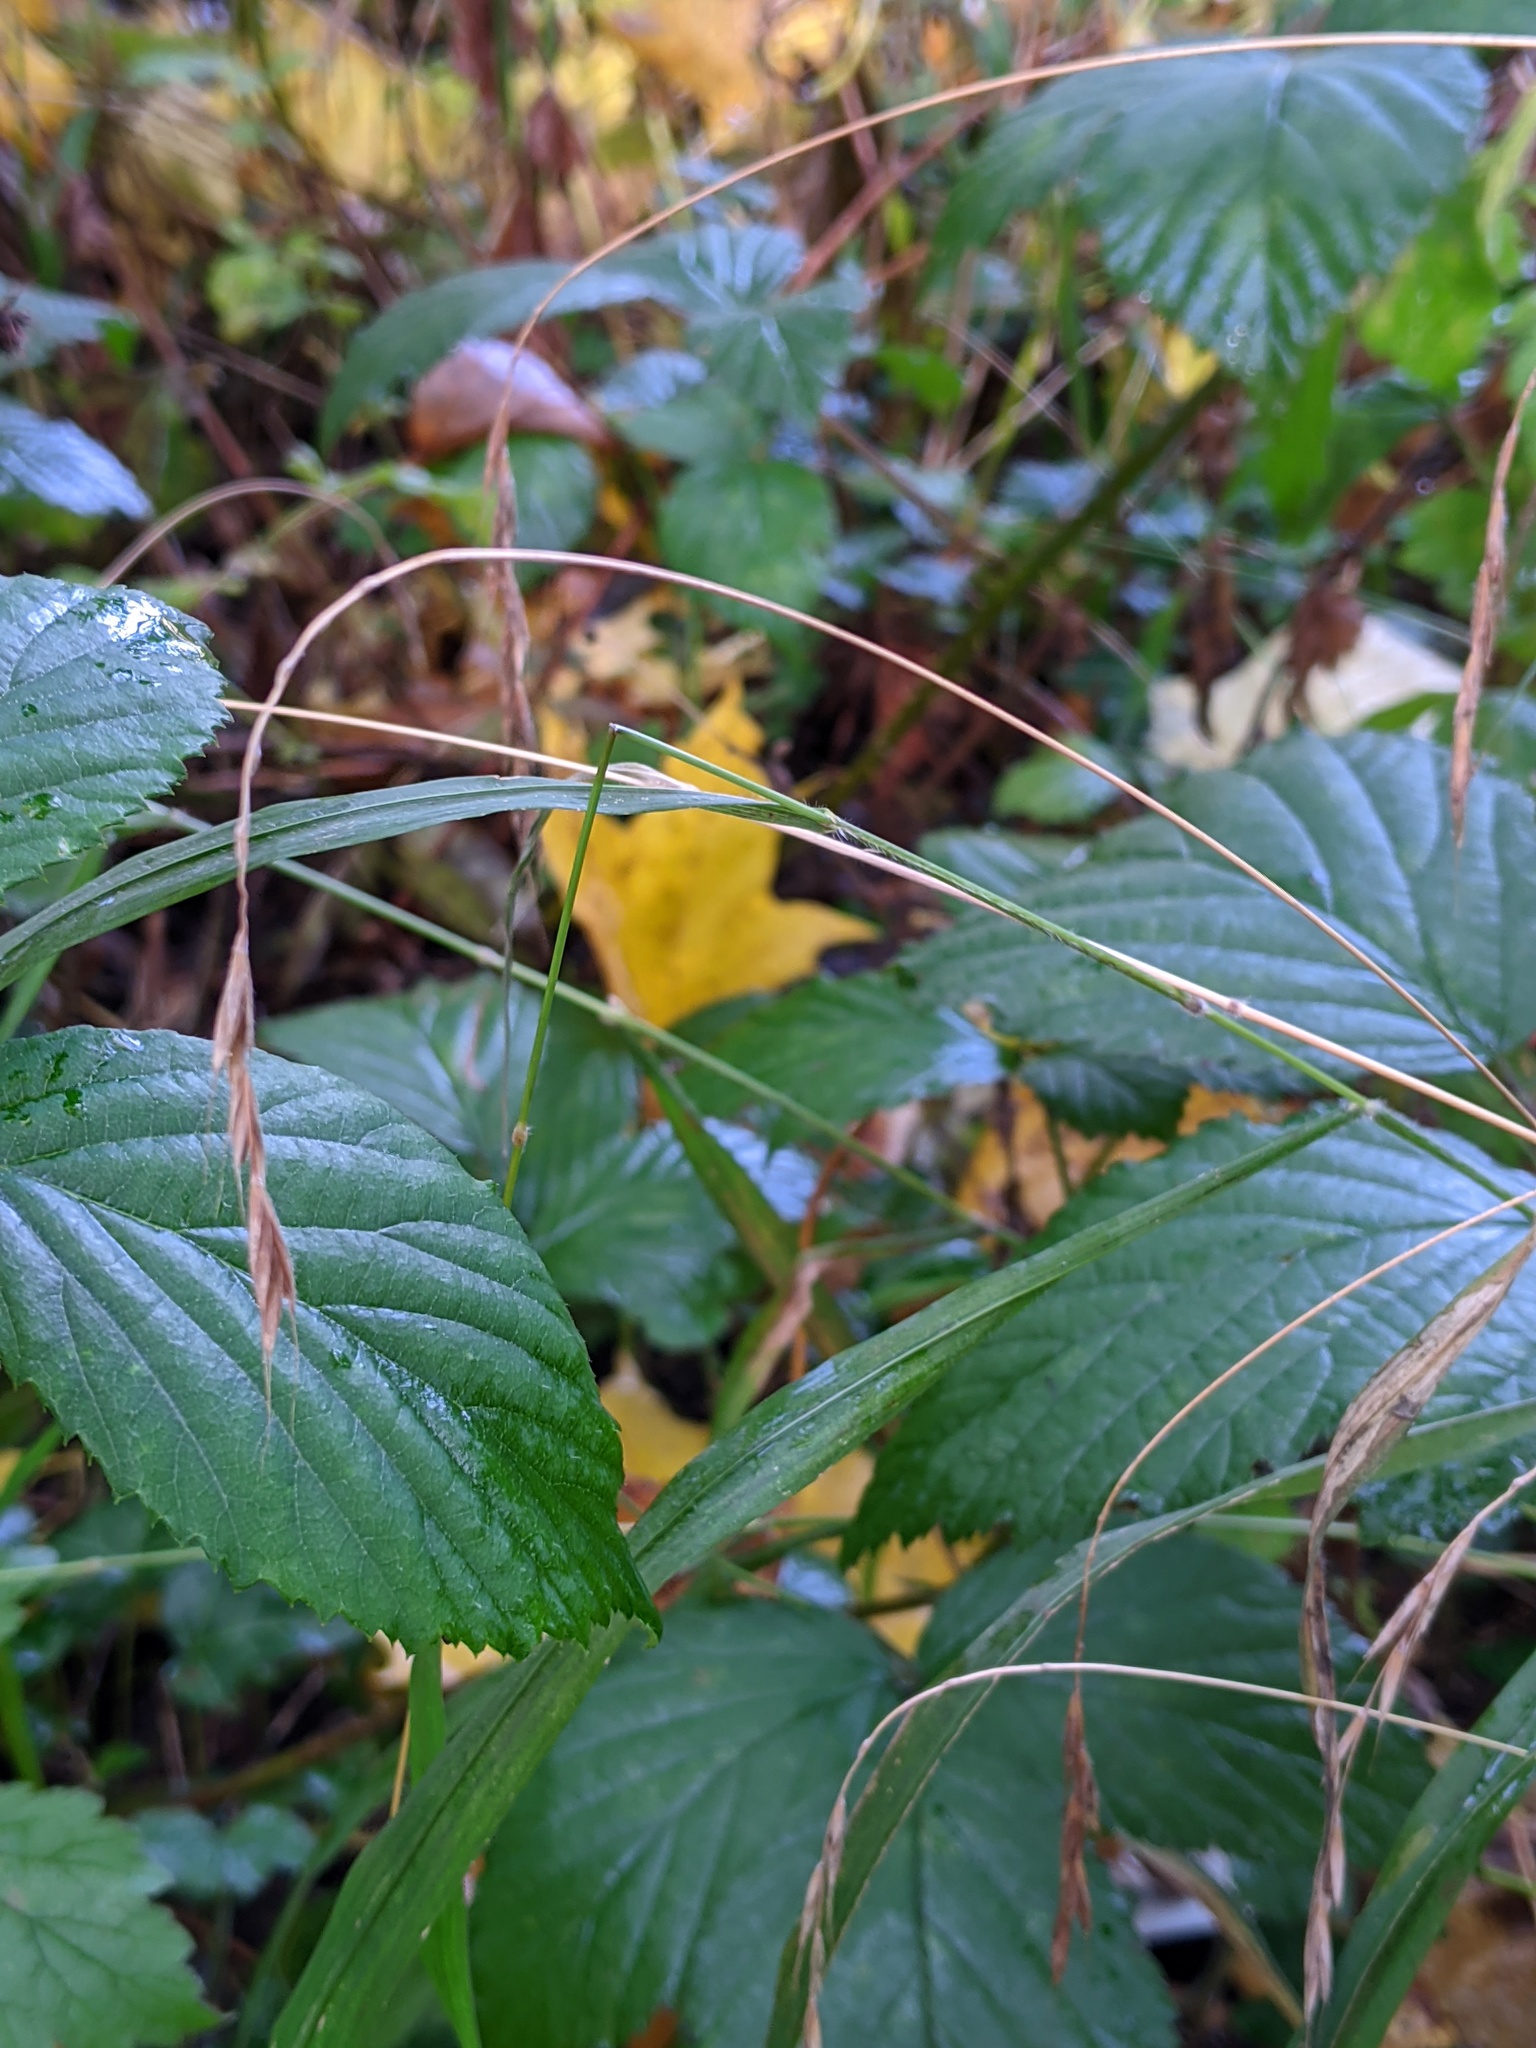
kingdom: Plantae
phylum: Tracheophyta
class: Liliopsida
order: Poales
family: Poaceae
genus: Brachypodium
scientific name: Brachypodium sylvaticum
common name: False-brome
